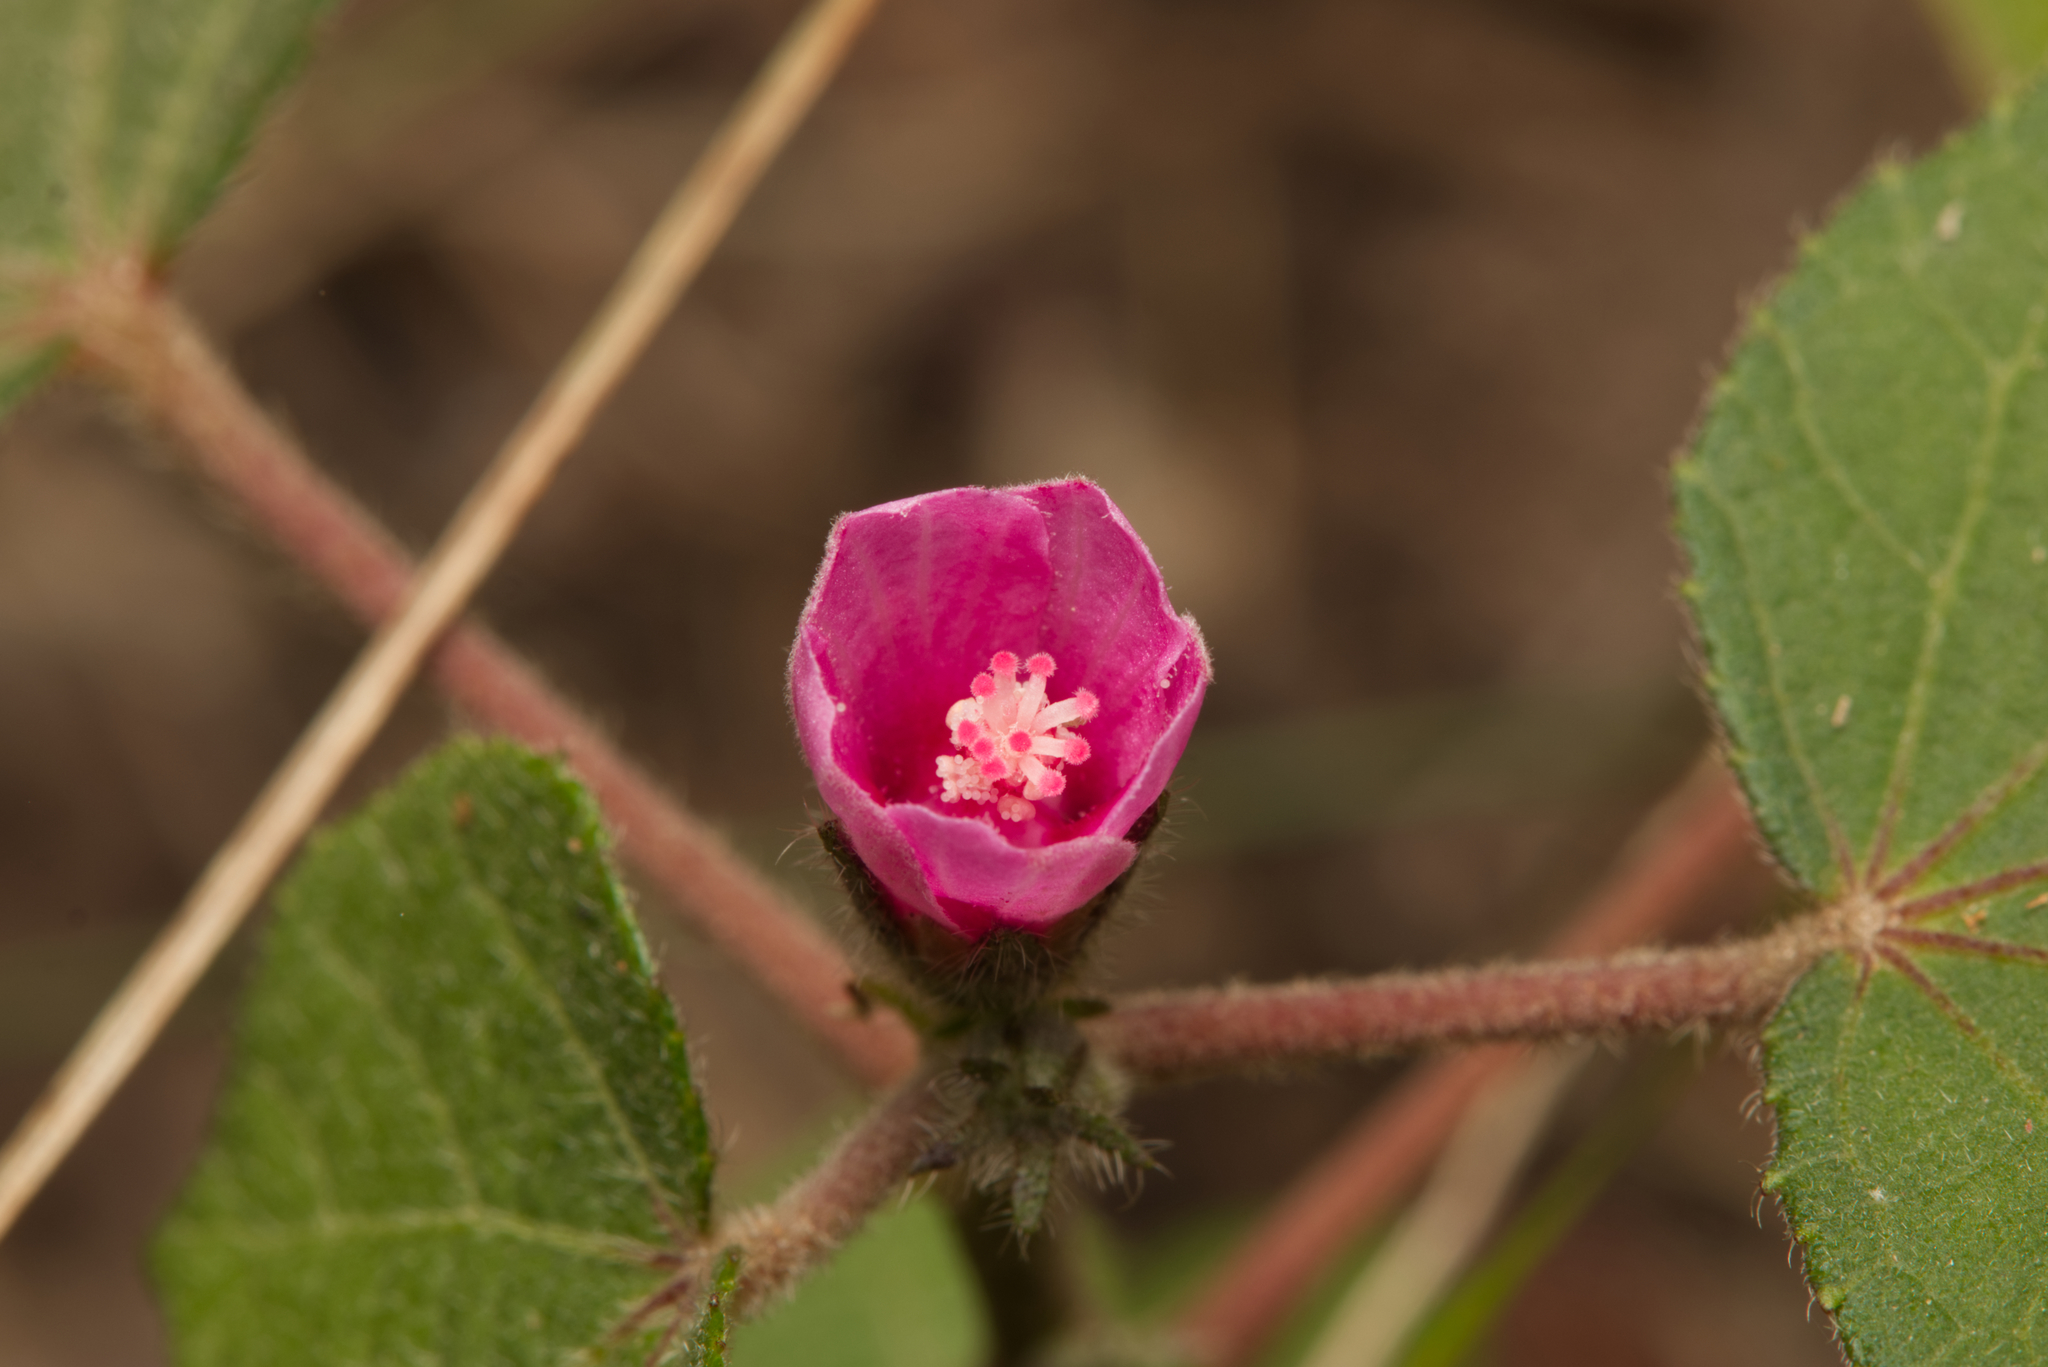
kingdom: Plantae
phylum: Tracheophyta
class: Magnoliopsida
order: Malvales
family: Malvaceae
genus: Urena
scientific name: Urena lobata
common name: Caesarweed
